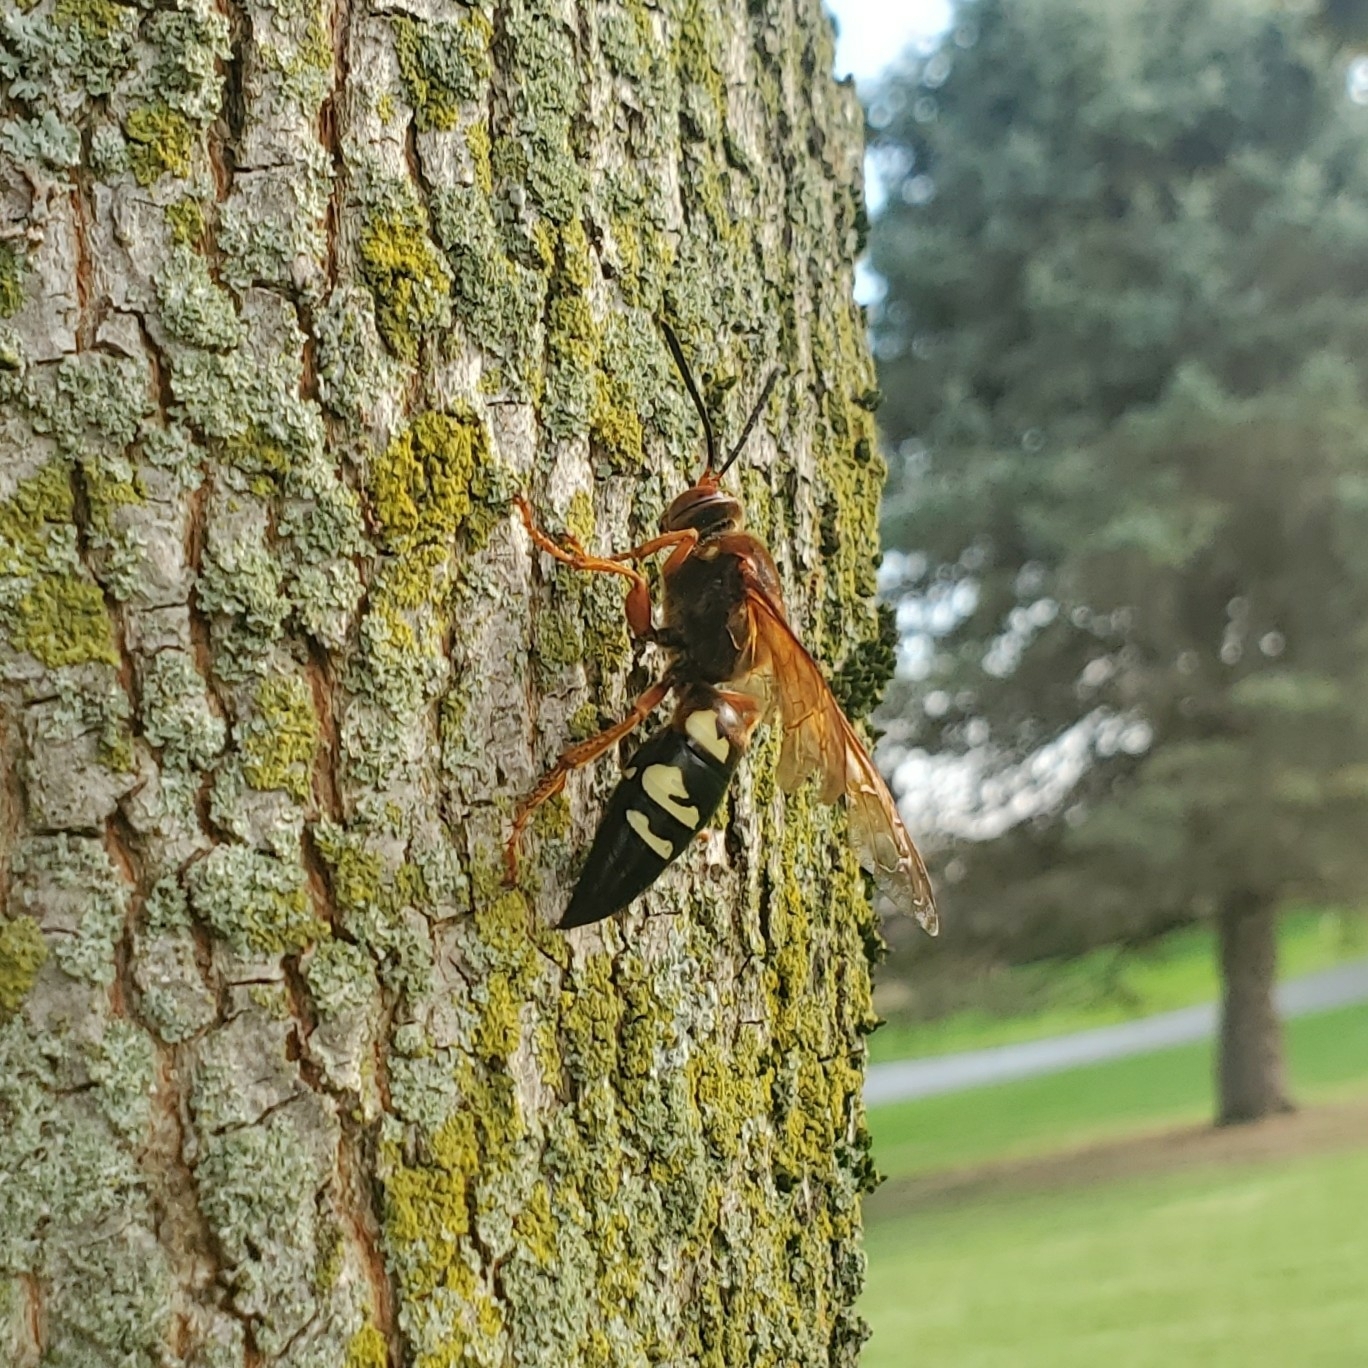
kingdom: Animalia
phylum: Arthropoda
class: Insecta
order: Hymenoptera
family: Crabronidae
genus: Sphecius
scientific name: Sphecius speciosus
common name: Cicada killer
